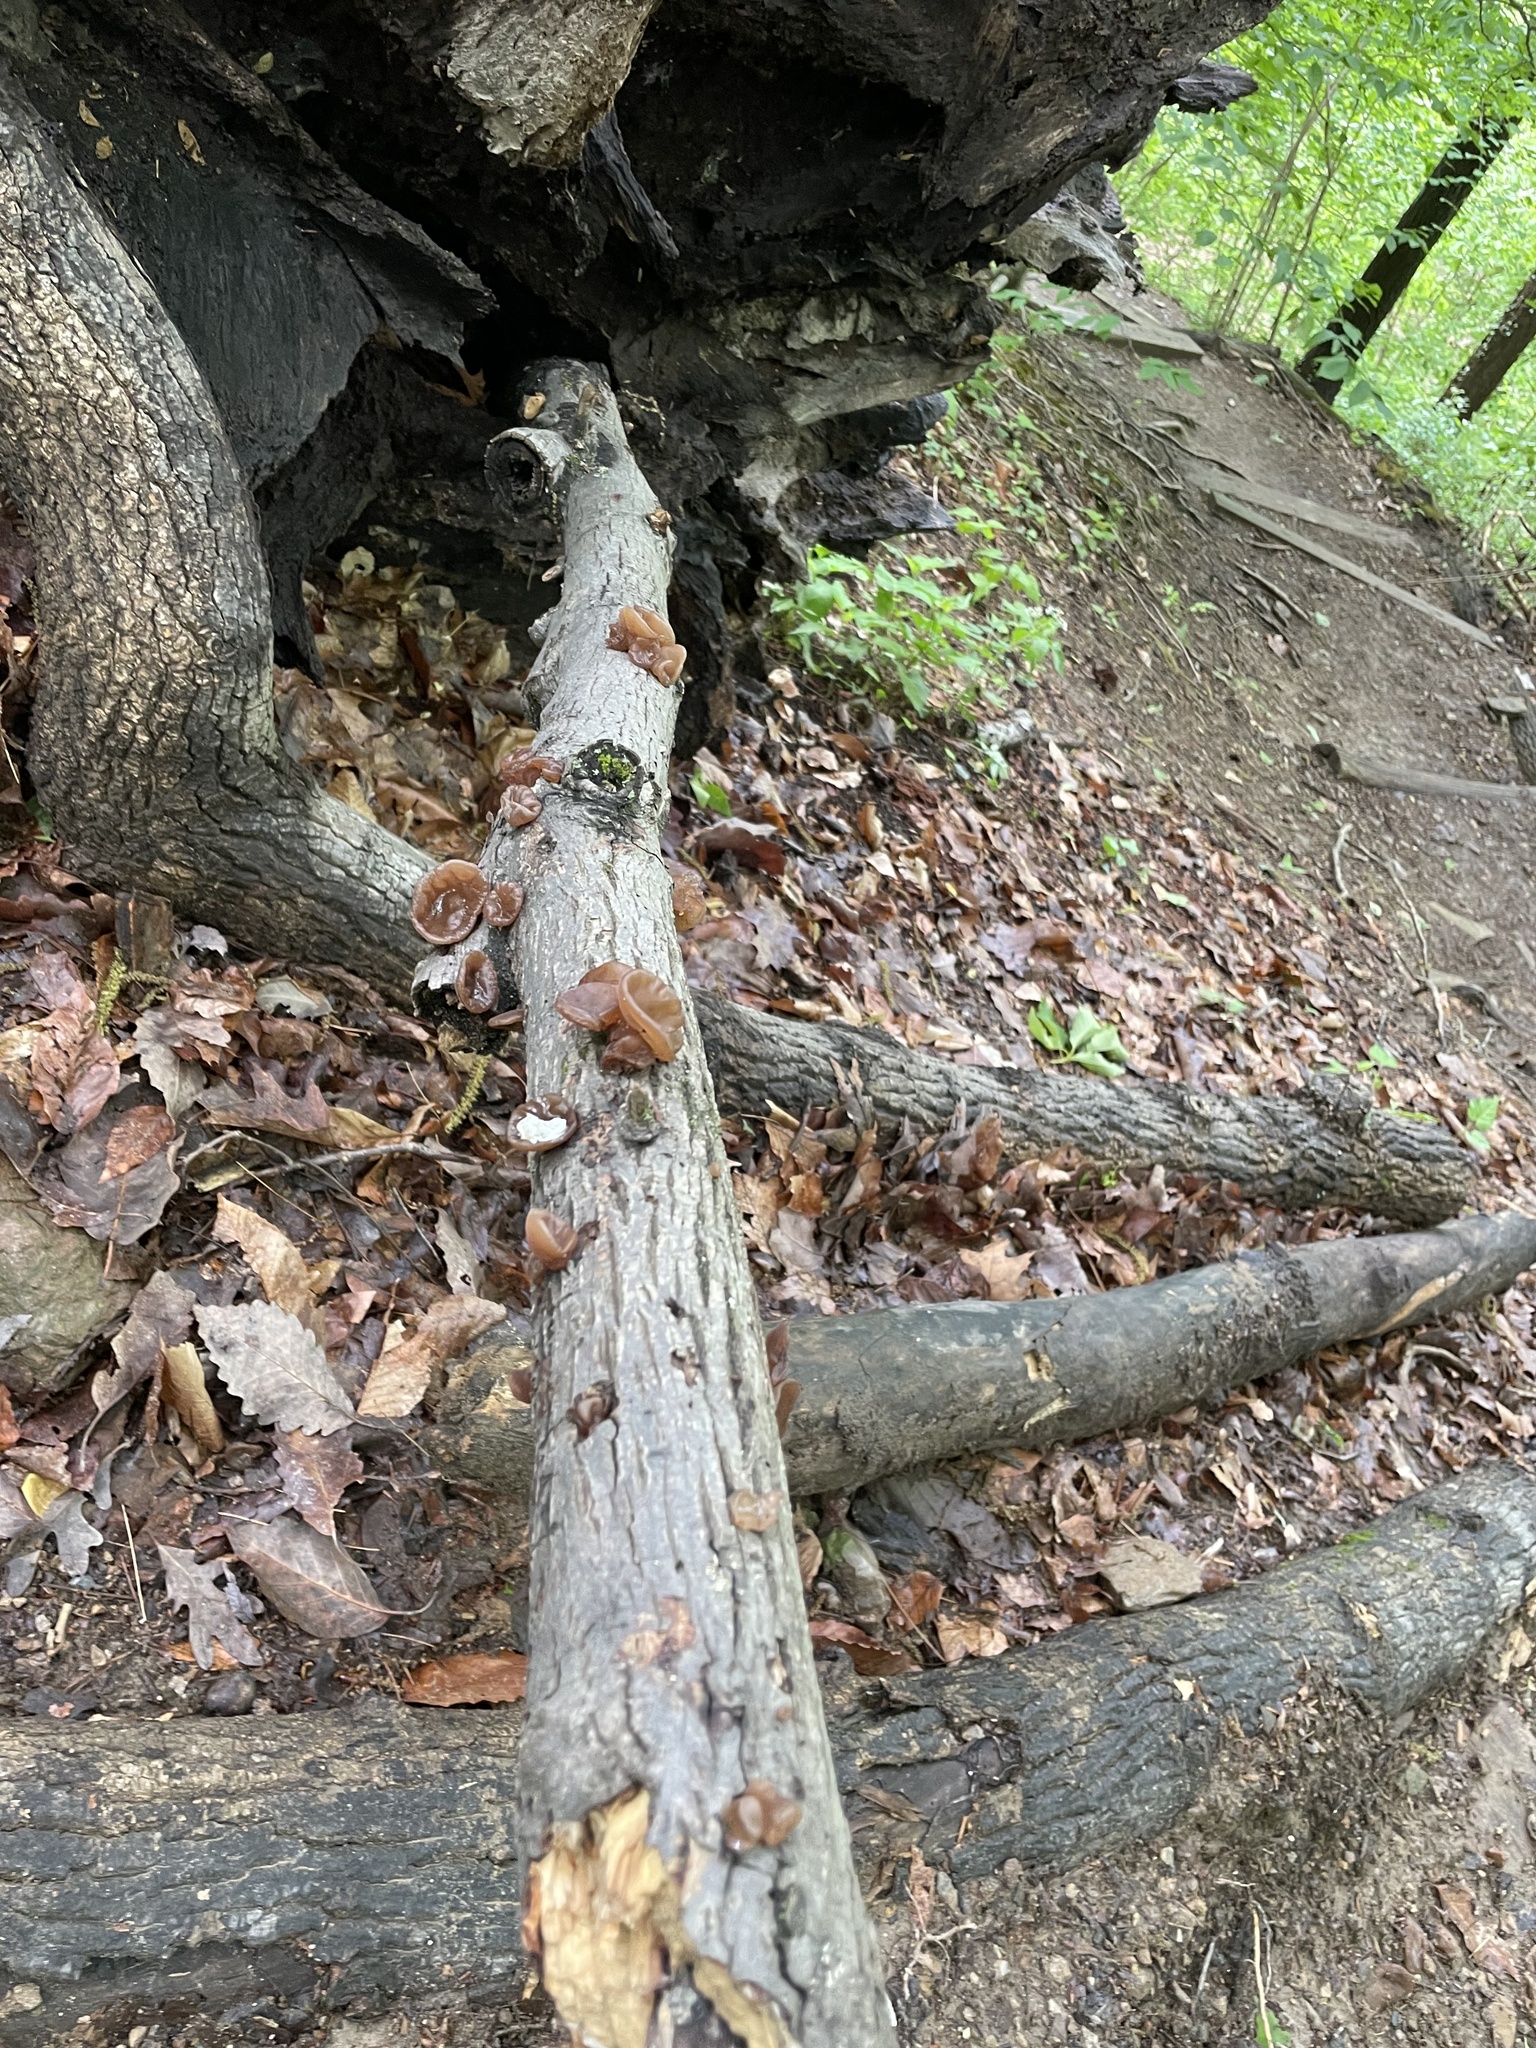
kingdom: Fungi
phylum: Basidiomycota
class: Agaricomycetes
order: Auriculariales
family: Auriculariaceae
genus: Auricularia
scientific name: Auricularia angiospermarum
